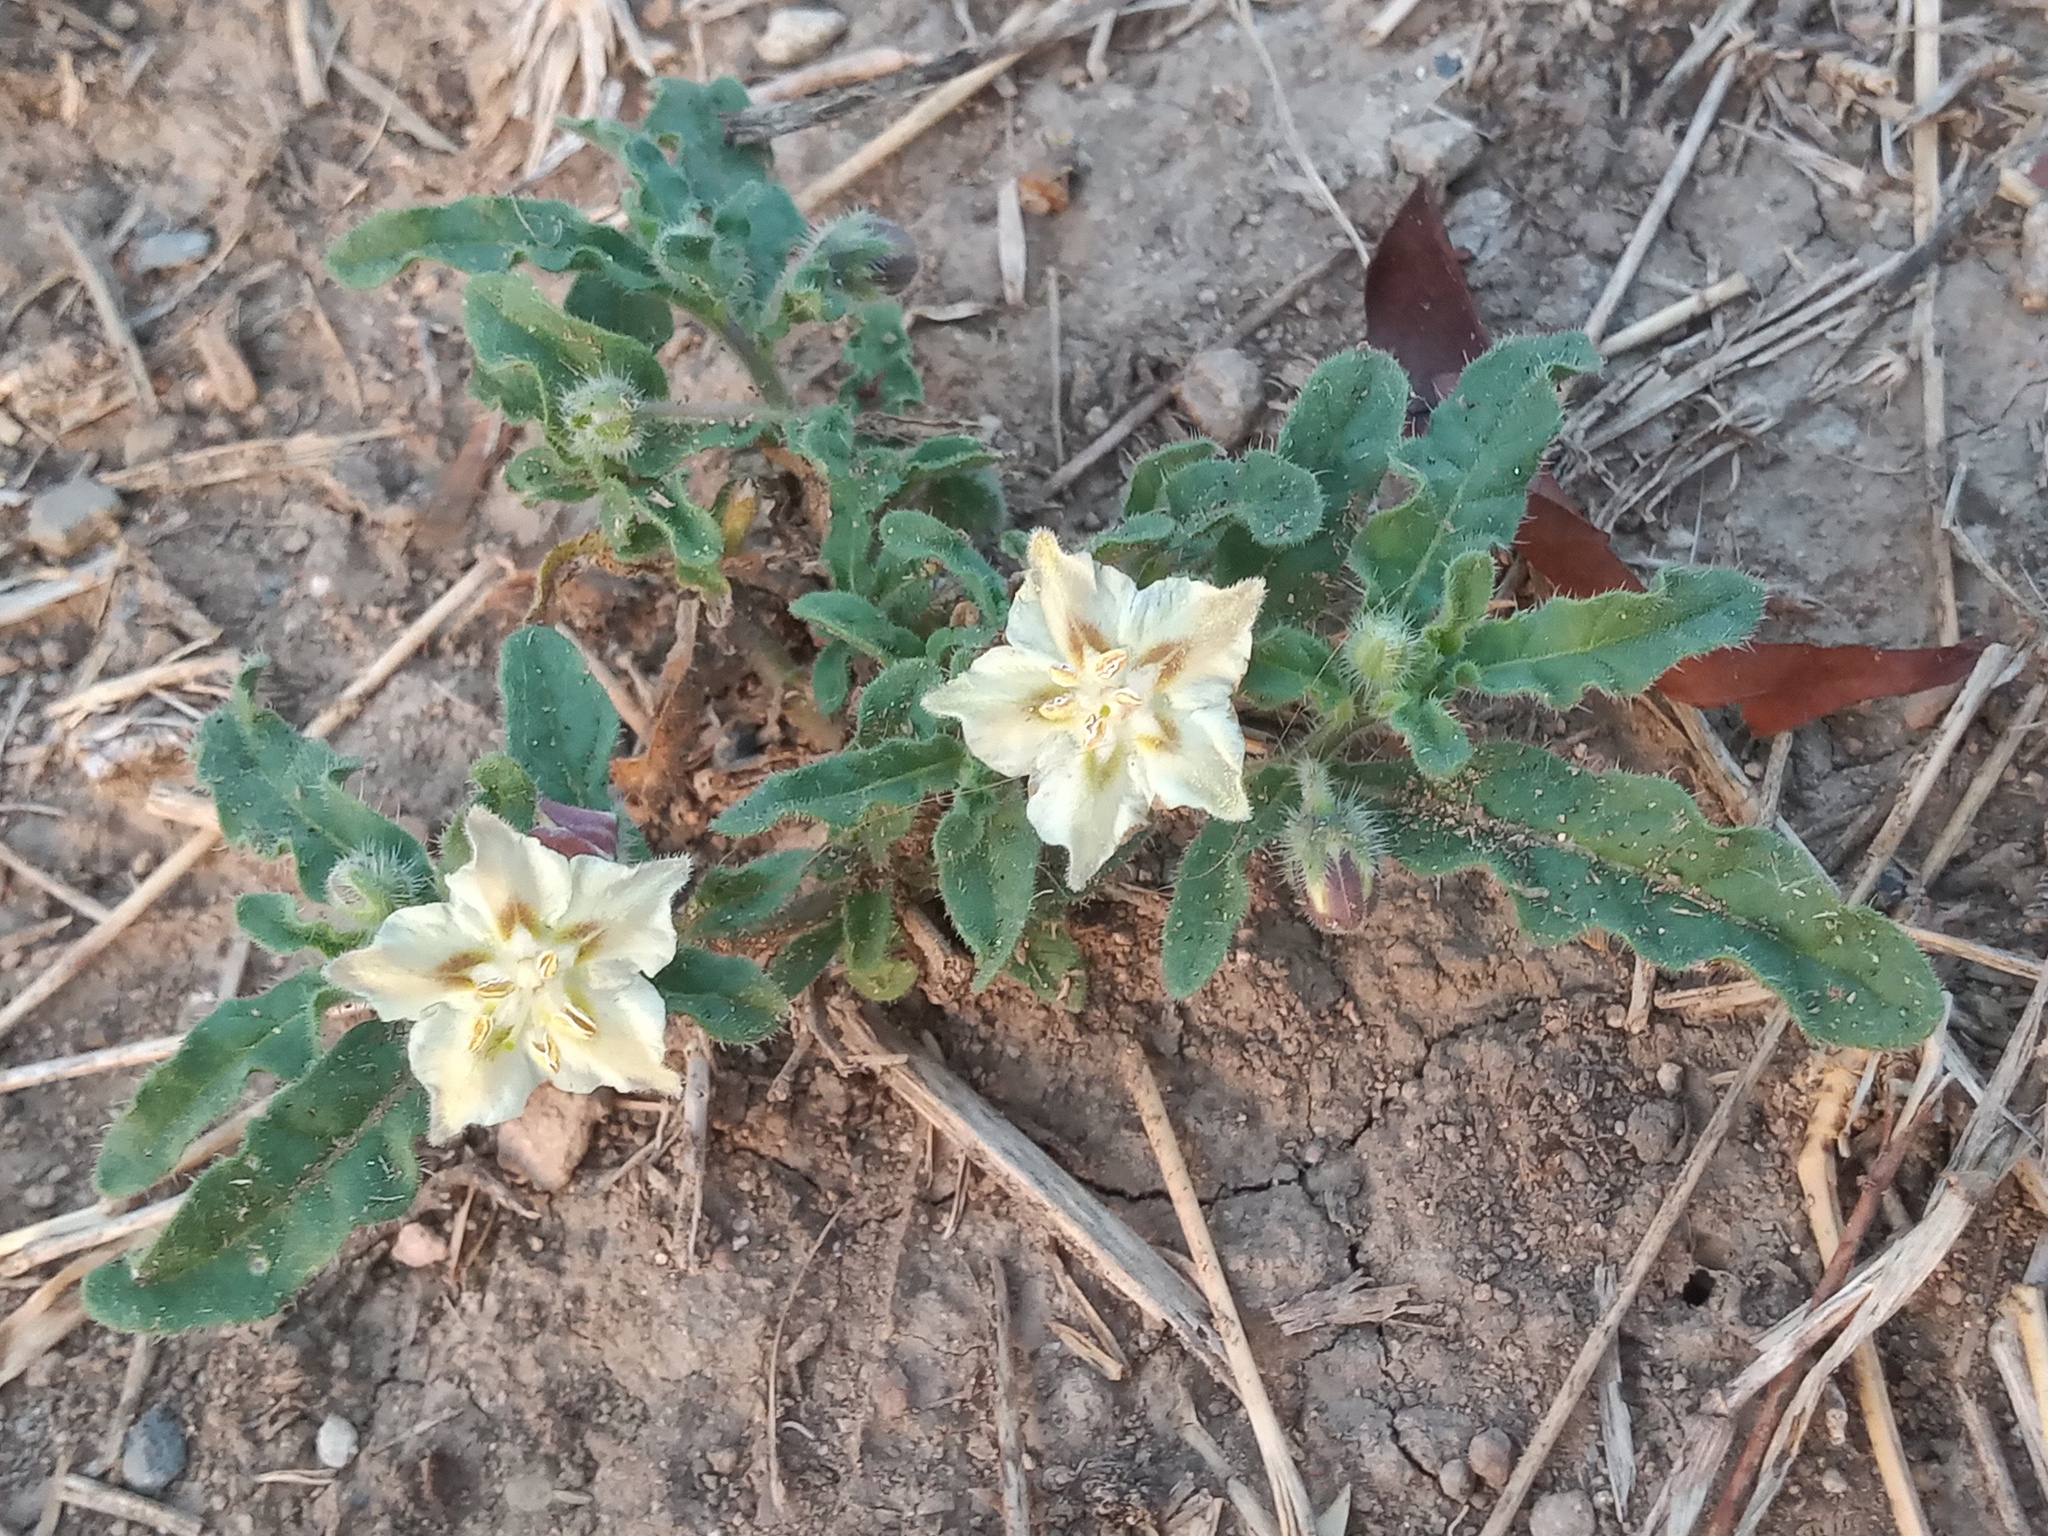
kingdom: Plantae
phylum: Tracheophyta
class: Magnoliopsida
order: Solanales
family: Solanaceae
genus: Chamaesaracha
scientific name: Chamaesaracha sordida
